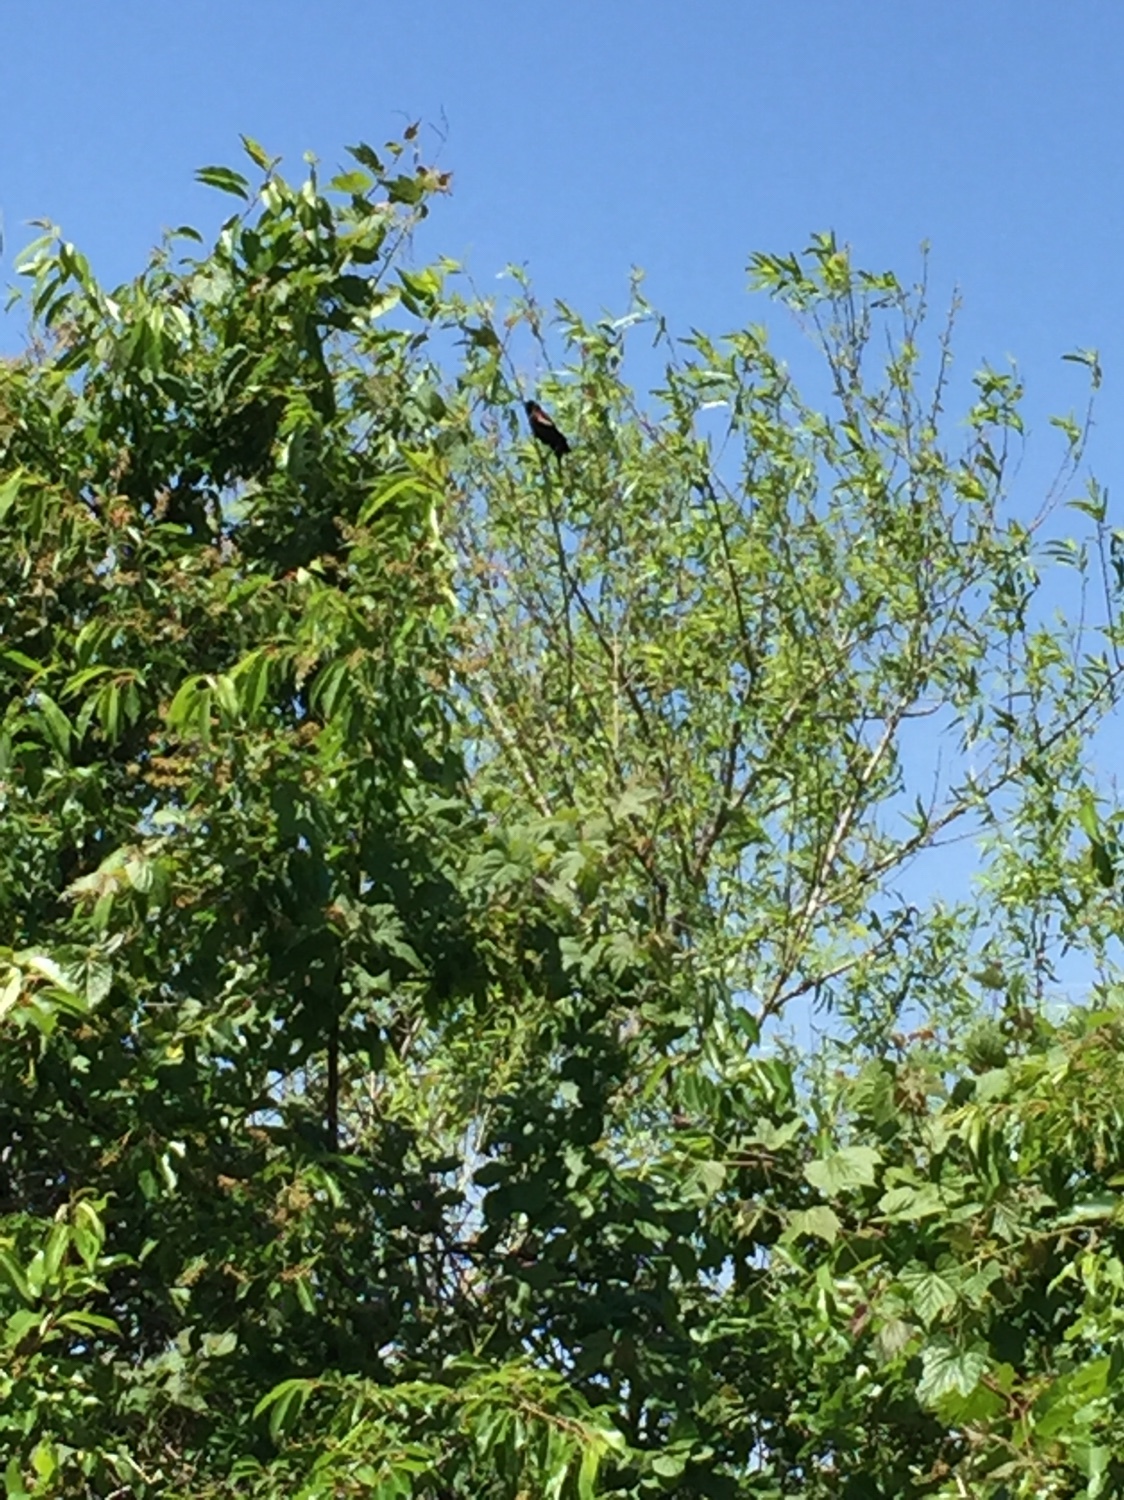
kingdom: Animalia
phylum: Chordata
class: Aves
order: Passeriformes
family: Icteridae
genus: Agelaius
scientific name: Agelaius phoeniceus
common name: Red-winged blackbird
